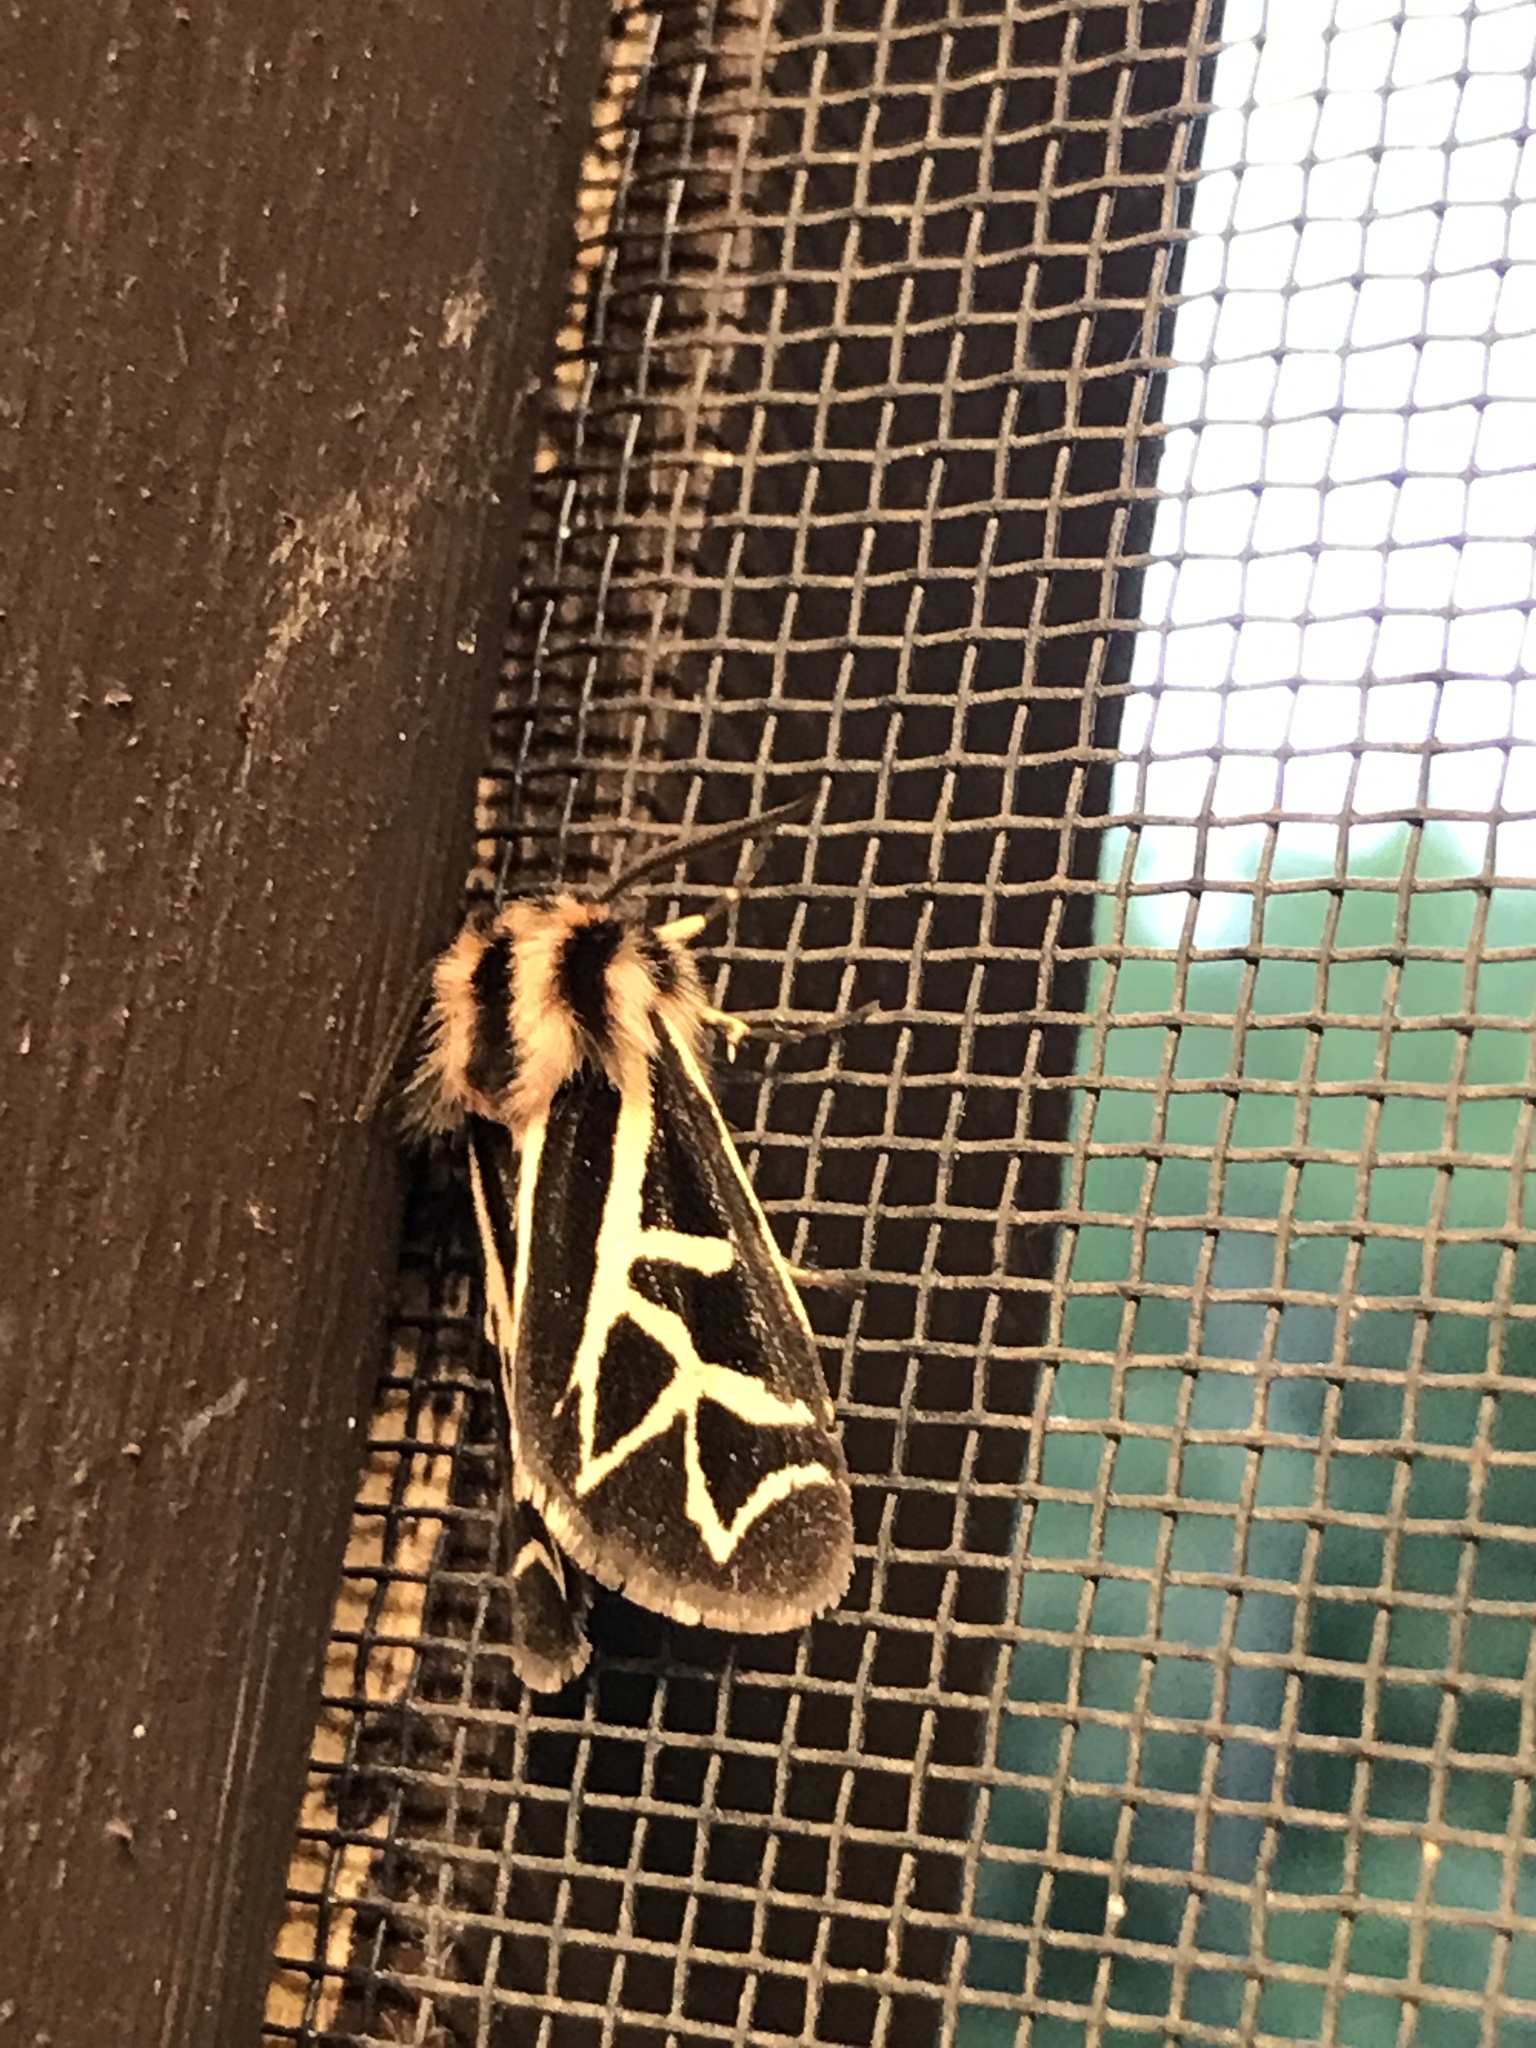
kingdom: Animalia
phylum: Arthropoda
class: Insecta
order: Lepidoptera
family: Erebidae
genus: Apantesis
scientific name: Apantesis
